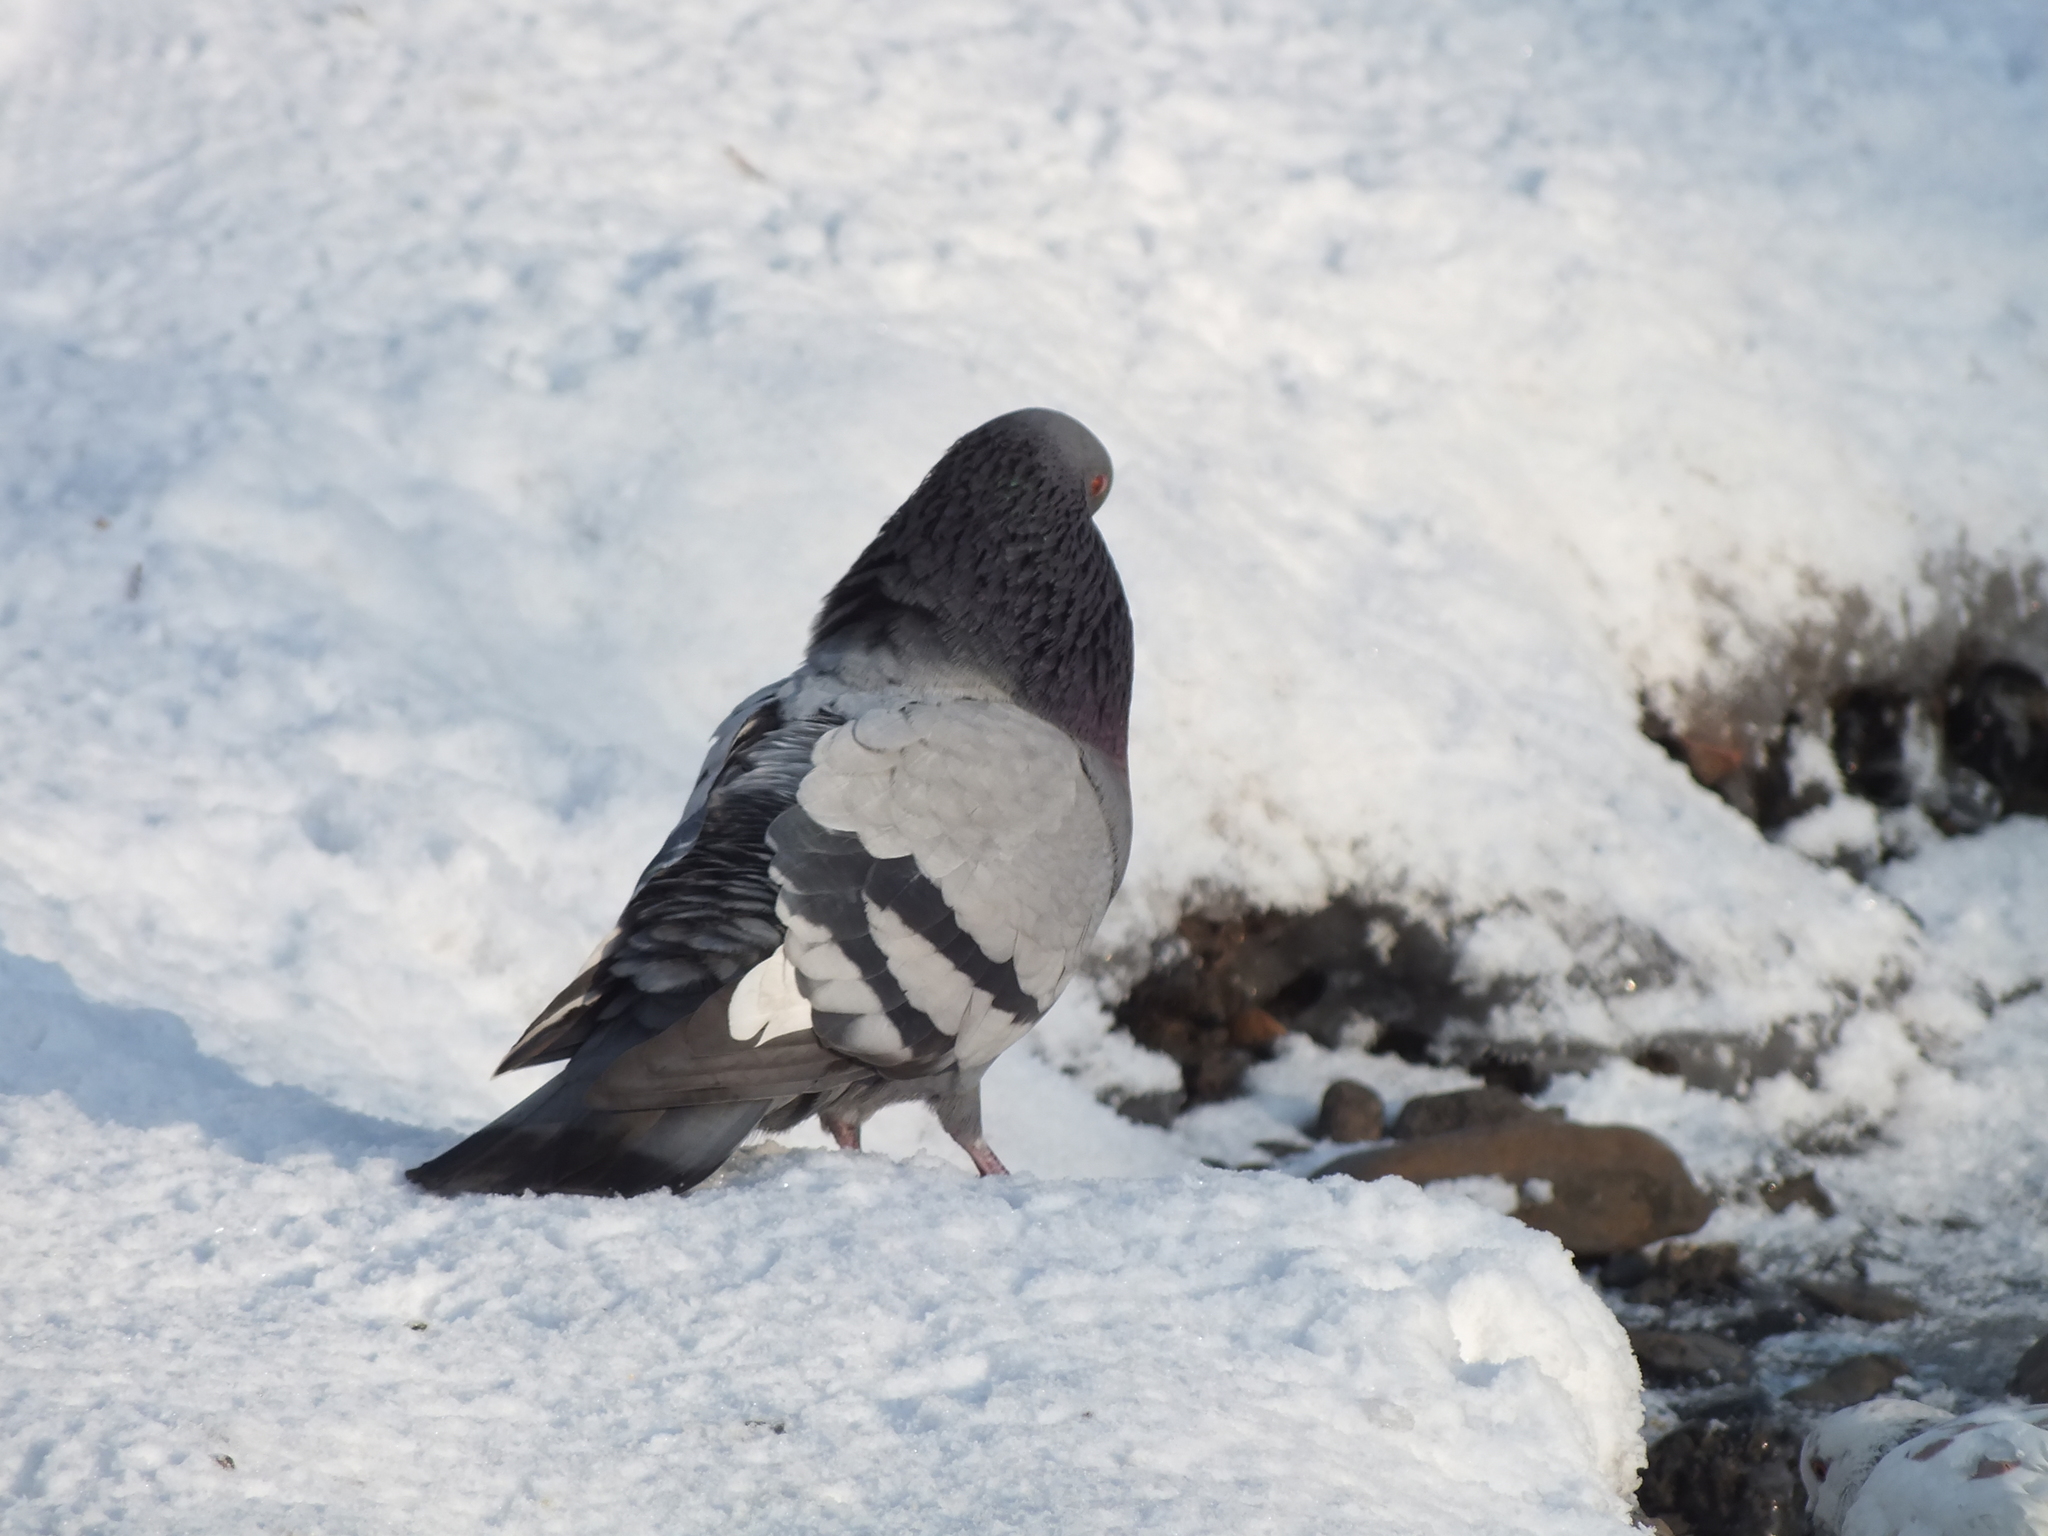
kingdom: Animalia
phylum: Chordata
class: Aves
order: Columbiformes
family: Columbidae
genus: Columba
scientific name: Columba livia
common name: Rock pigeon
